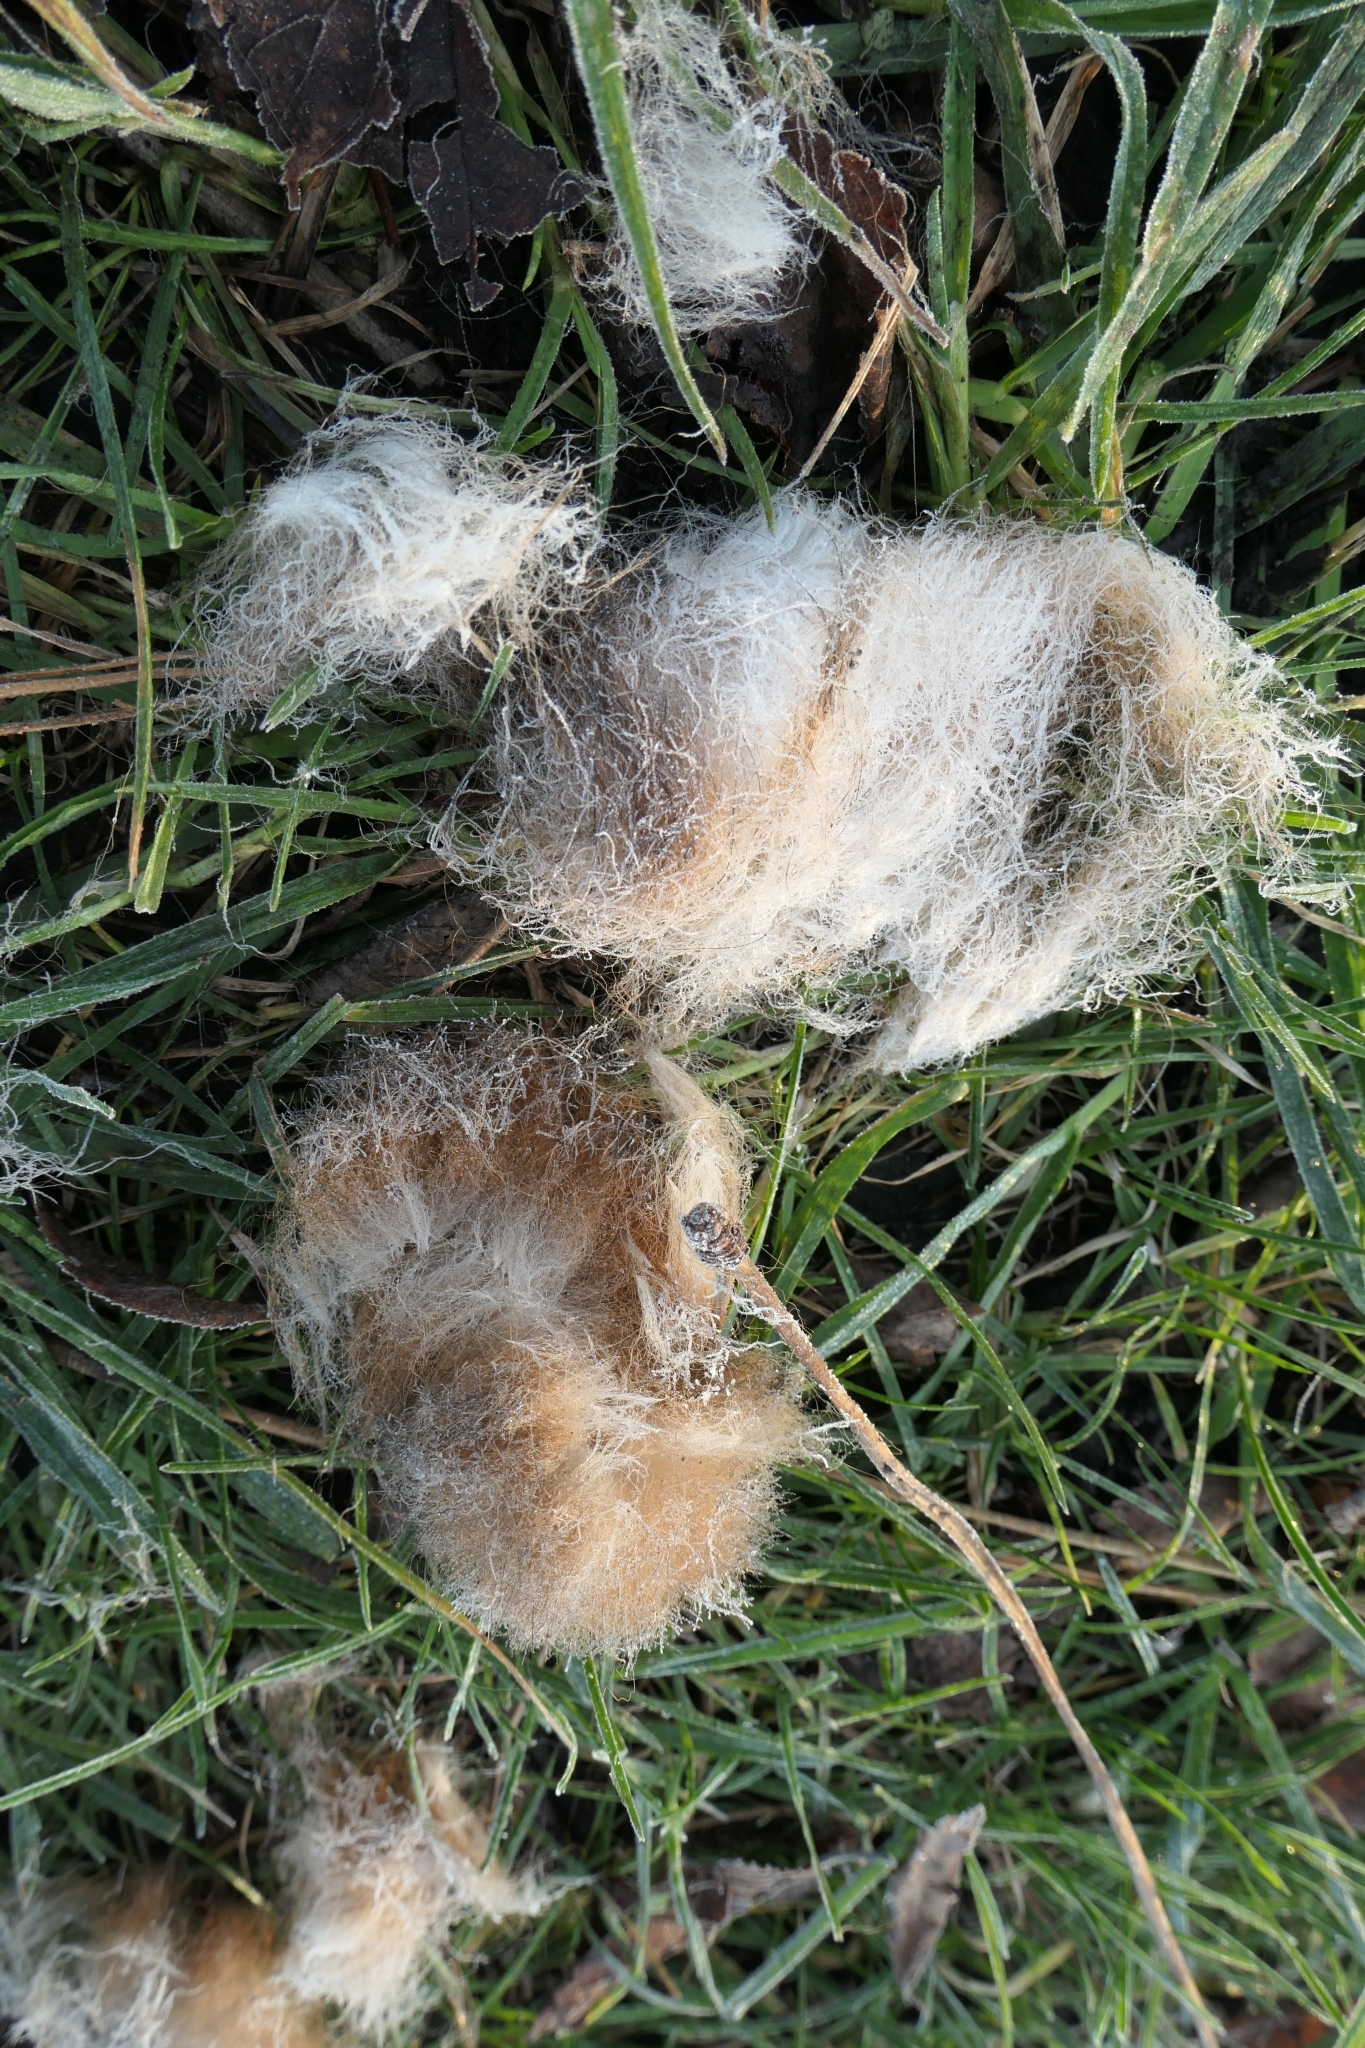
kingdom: Animalia
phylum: Chordata
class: Mammalia
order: Diprotodontia
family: Phalangeridae
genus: Trichosurus
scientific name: Trichosurus vulpecula
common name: Common brushtail
